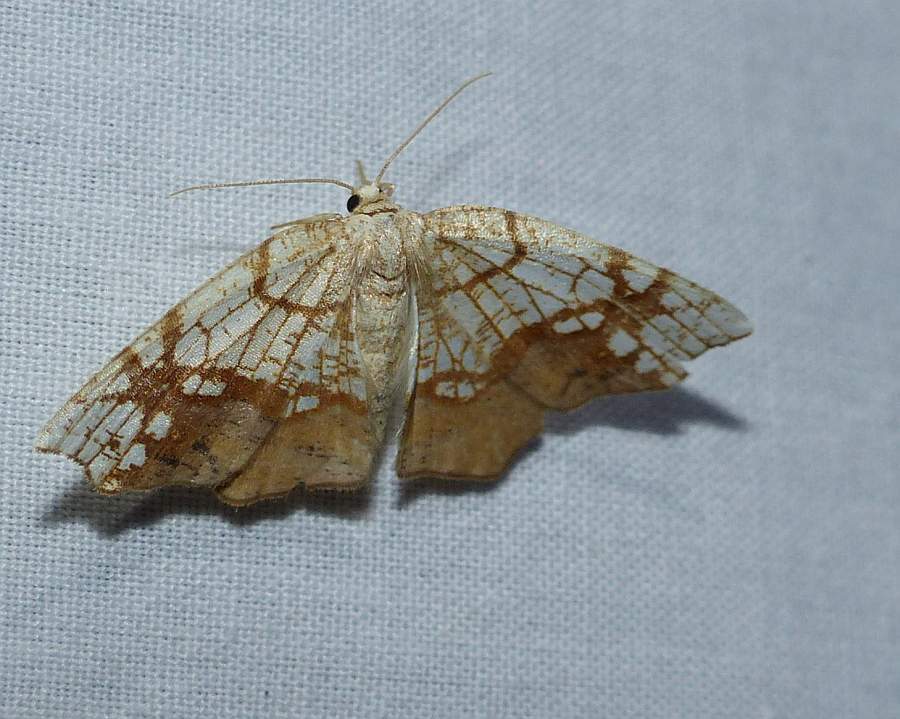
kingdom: Animalia
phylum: Arthropoda
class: Insecta
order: Lepidoptera
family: Geometridae
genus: Nematocampa
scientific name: Nematocampa resistaria
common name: Horned spanworm moth
